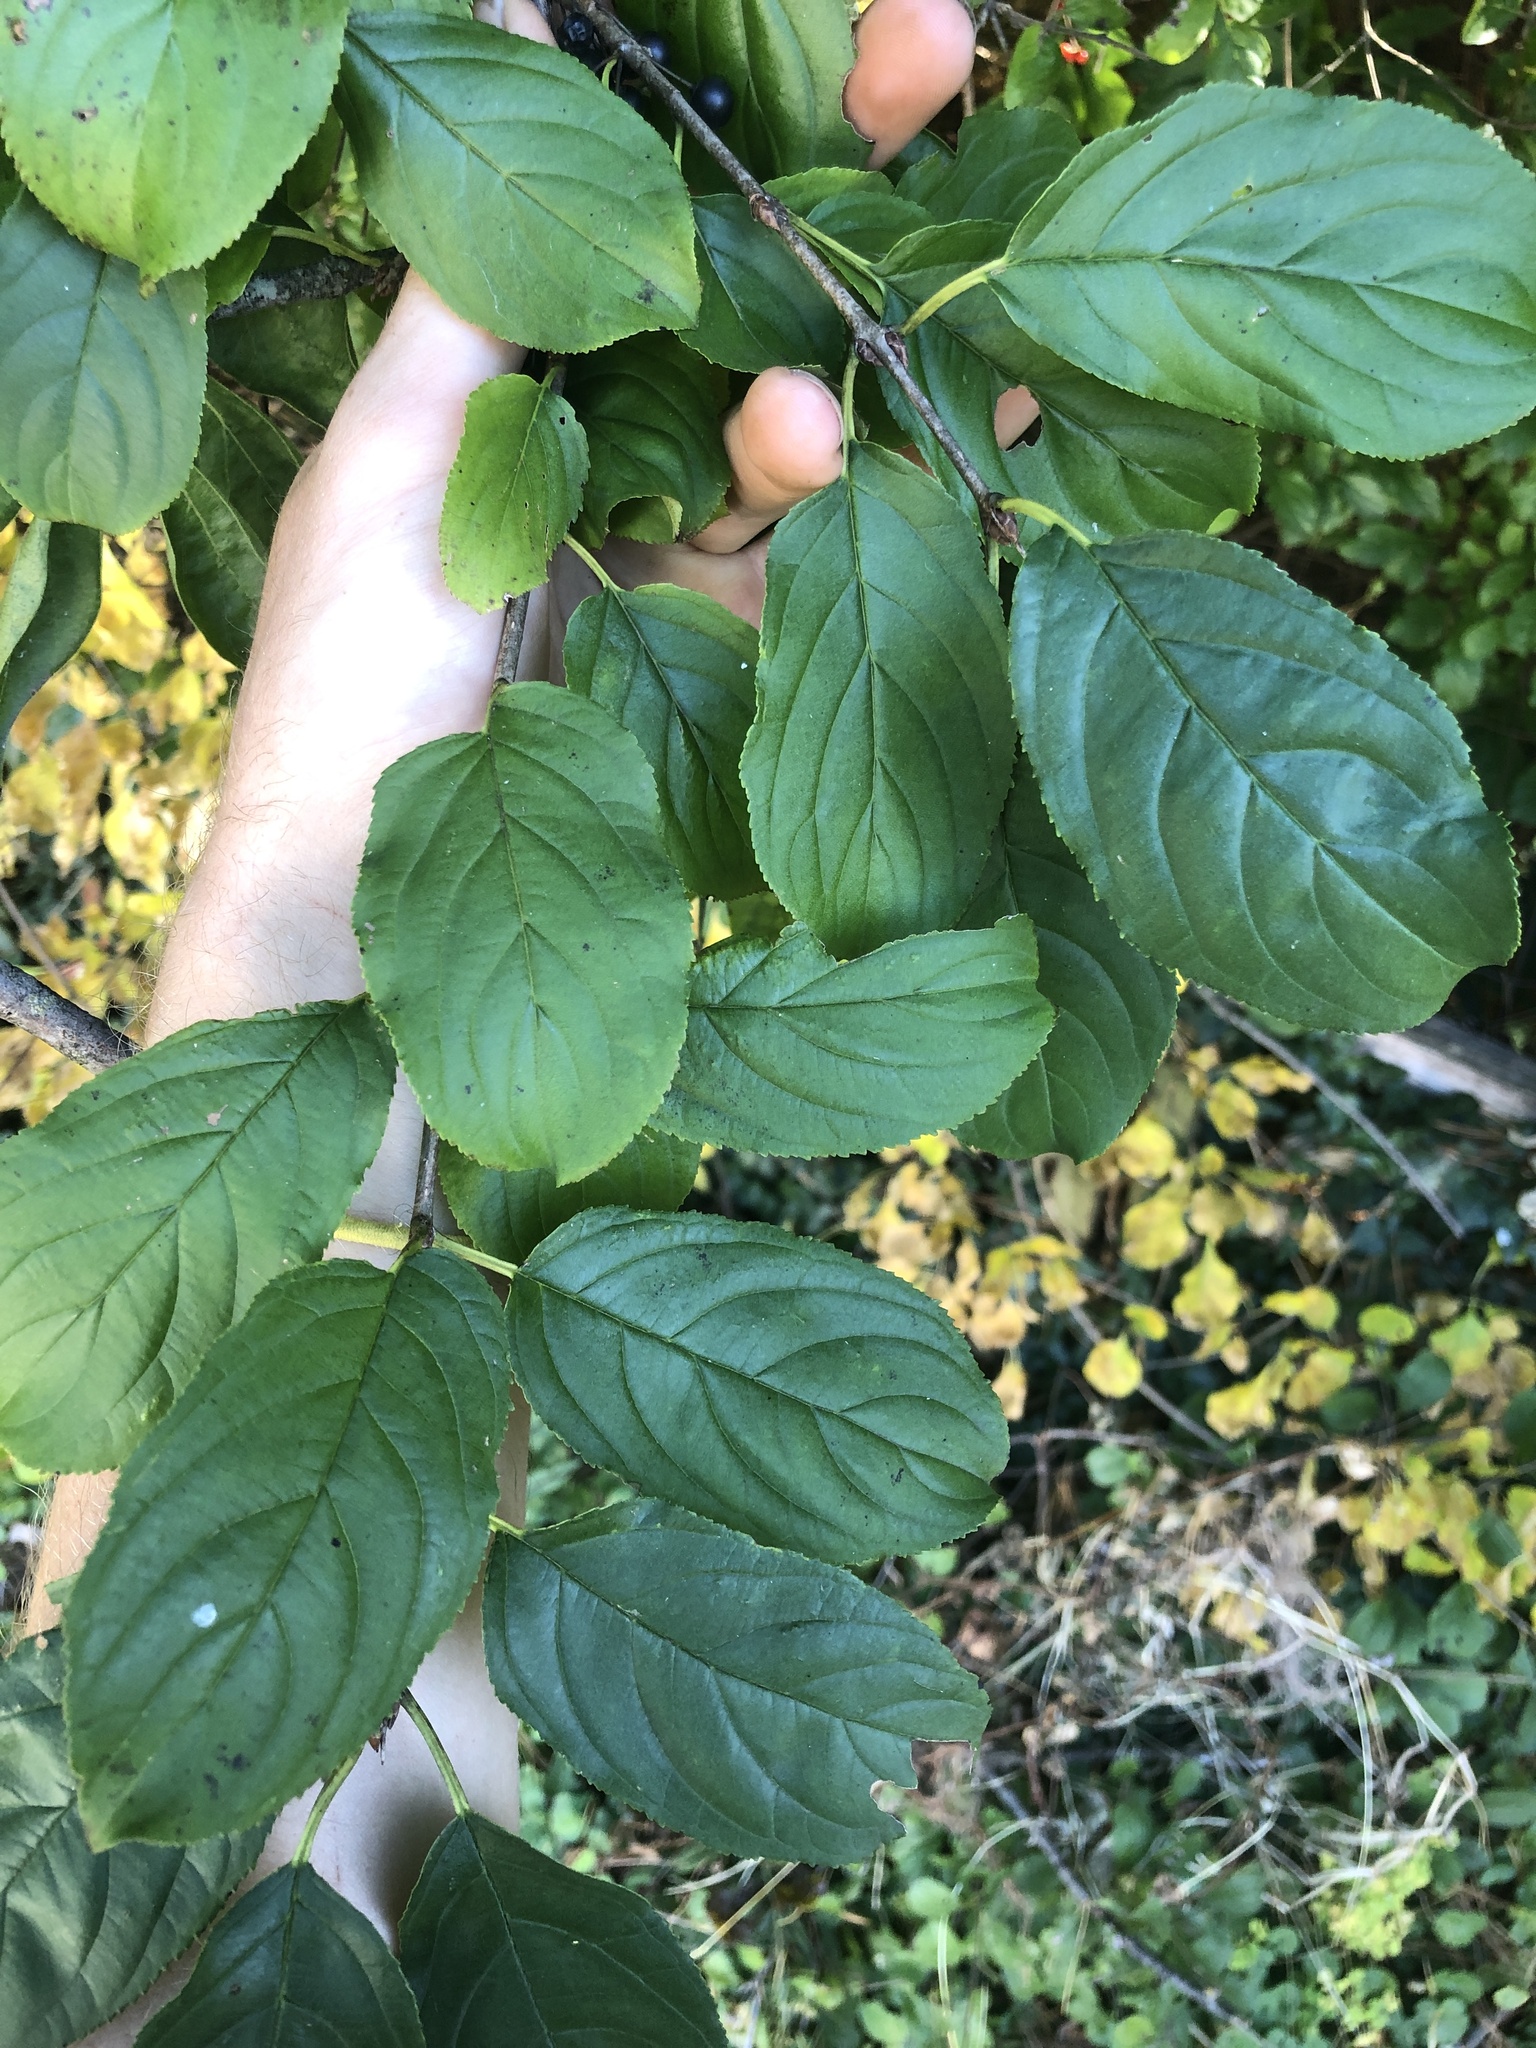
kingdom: Plantae
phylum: Tracheophyta
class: Magnoliopsida
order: Rosales
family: Rhamnaceae
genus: Rhamnus
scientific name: Rhamnus virgata
